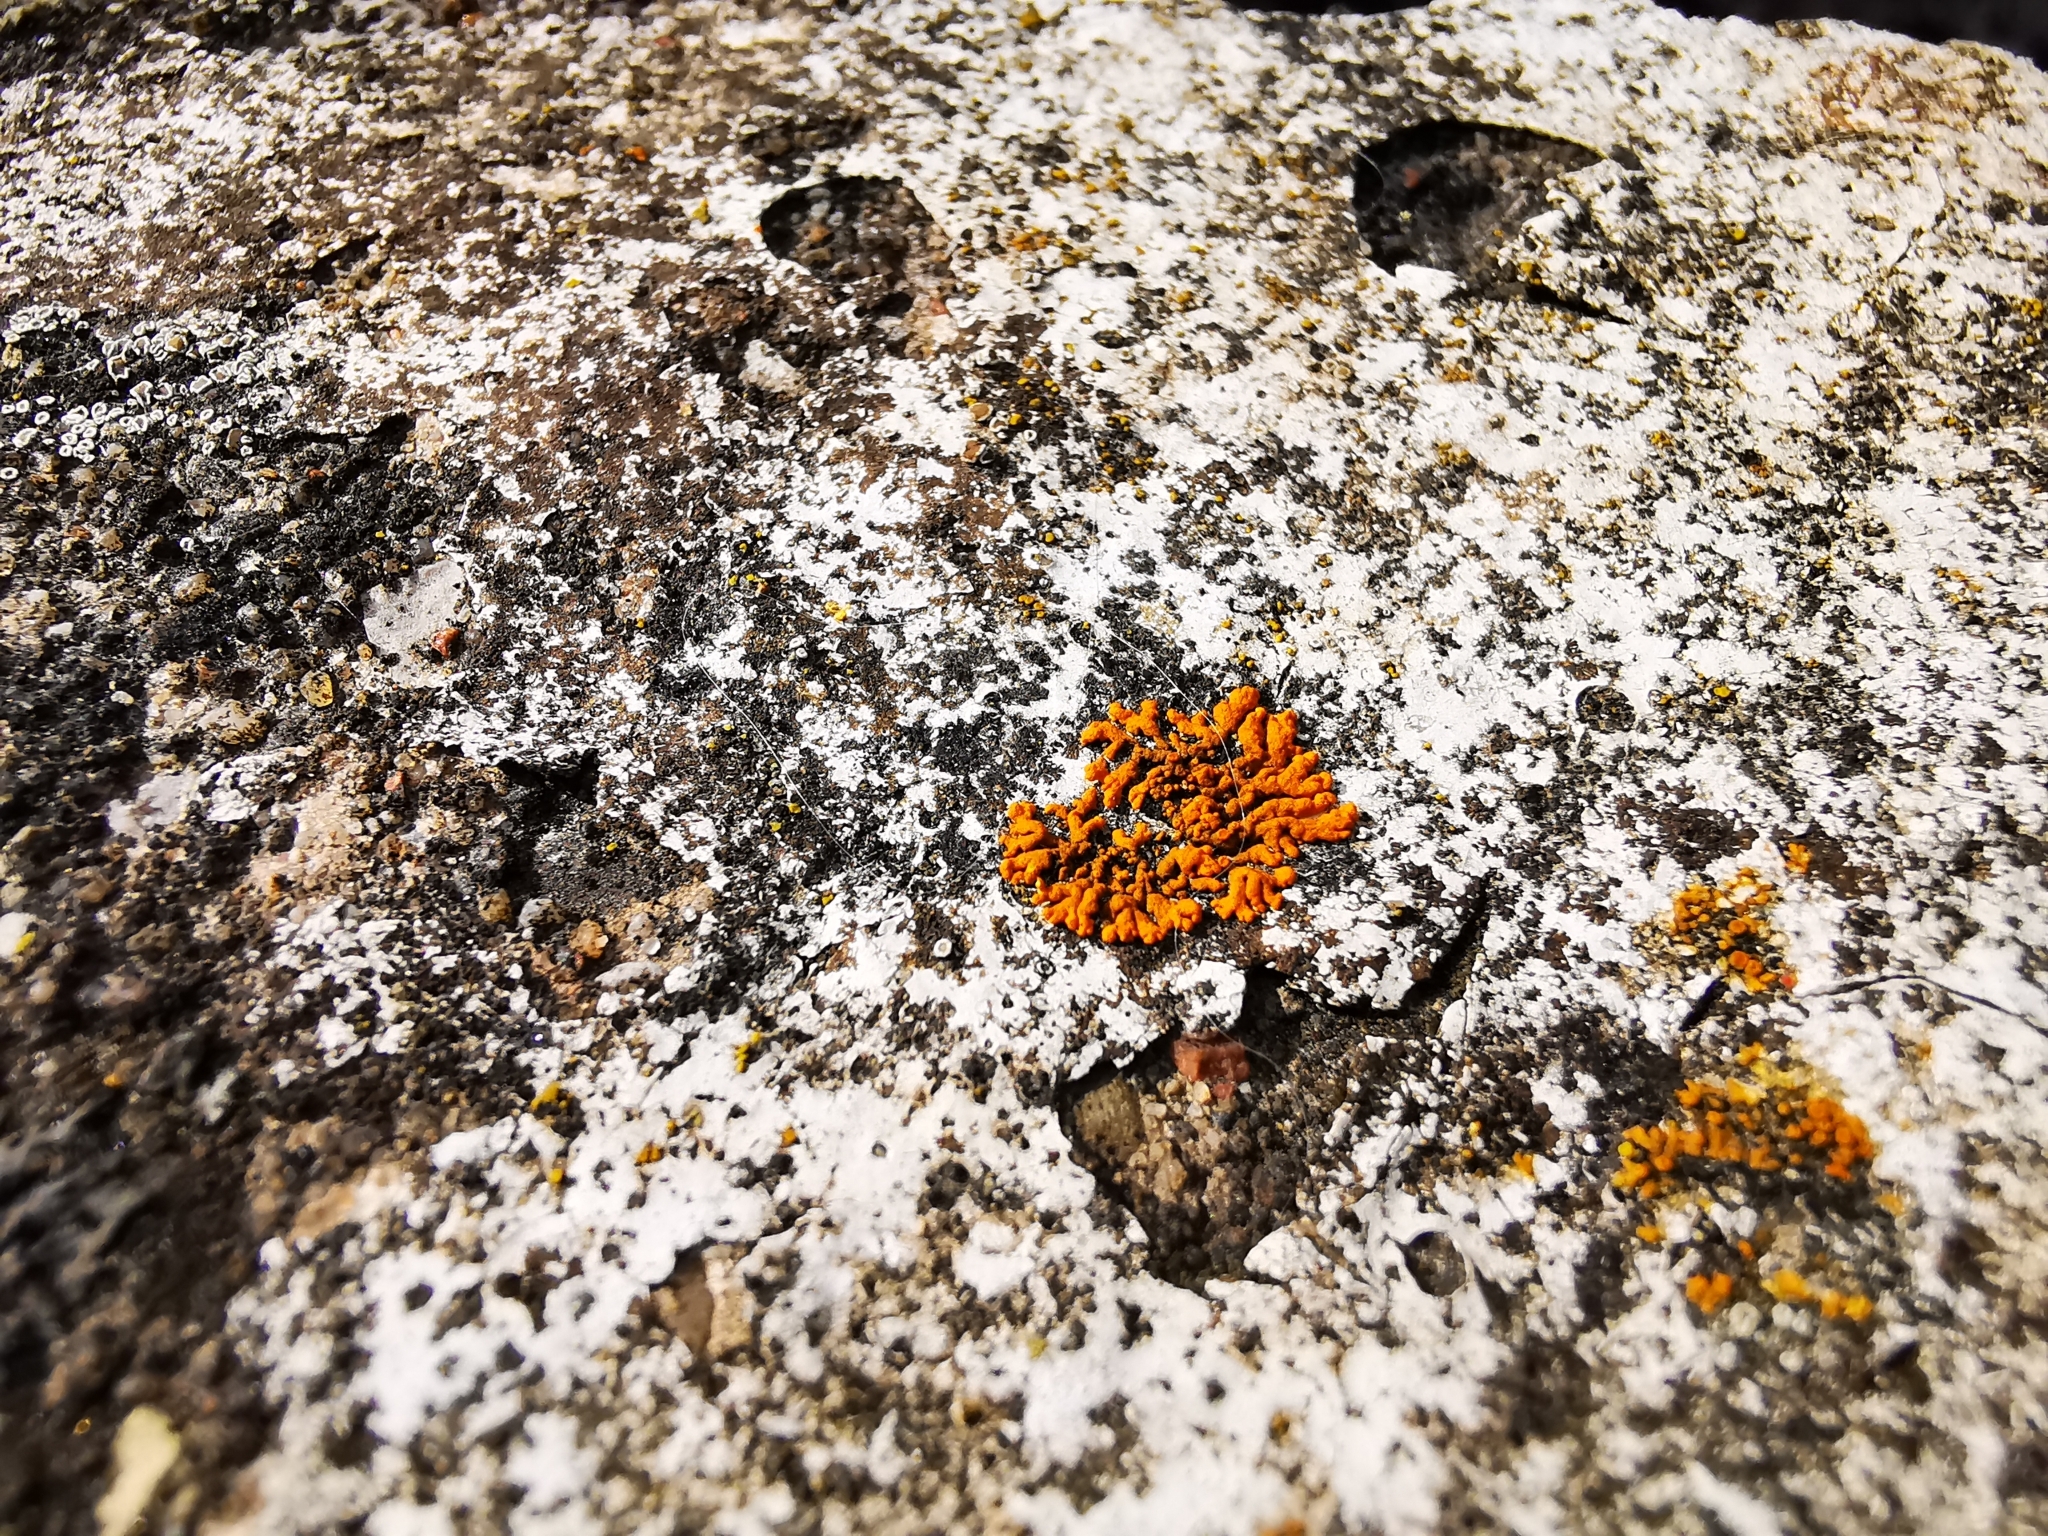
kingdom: Fungi
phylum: Ascomycota
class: Lecanoromycetes
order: Teloschistales
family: Teloschistaceae
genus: Xanthoria
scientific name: Xanthoria elegans
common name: Elegant sunburst lichen
